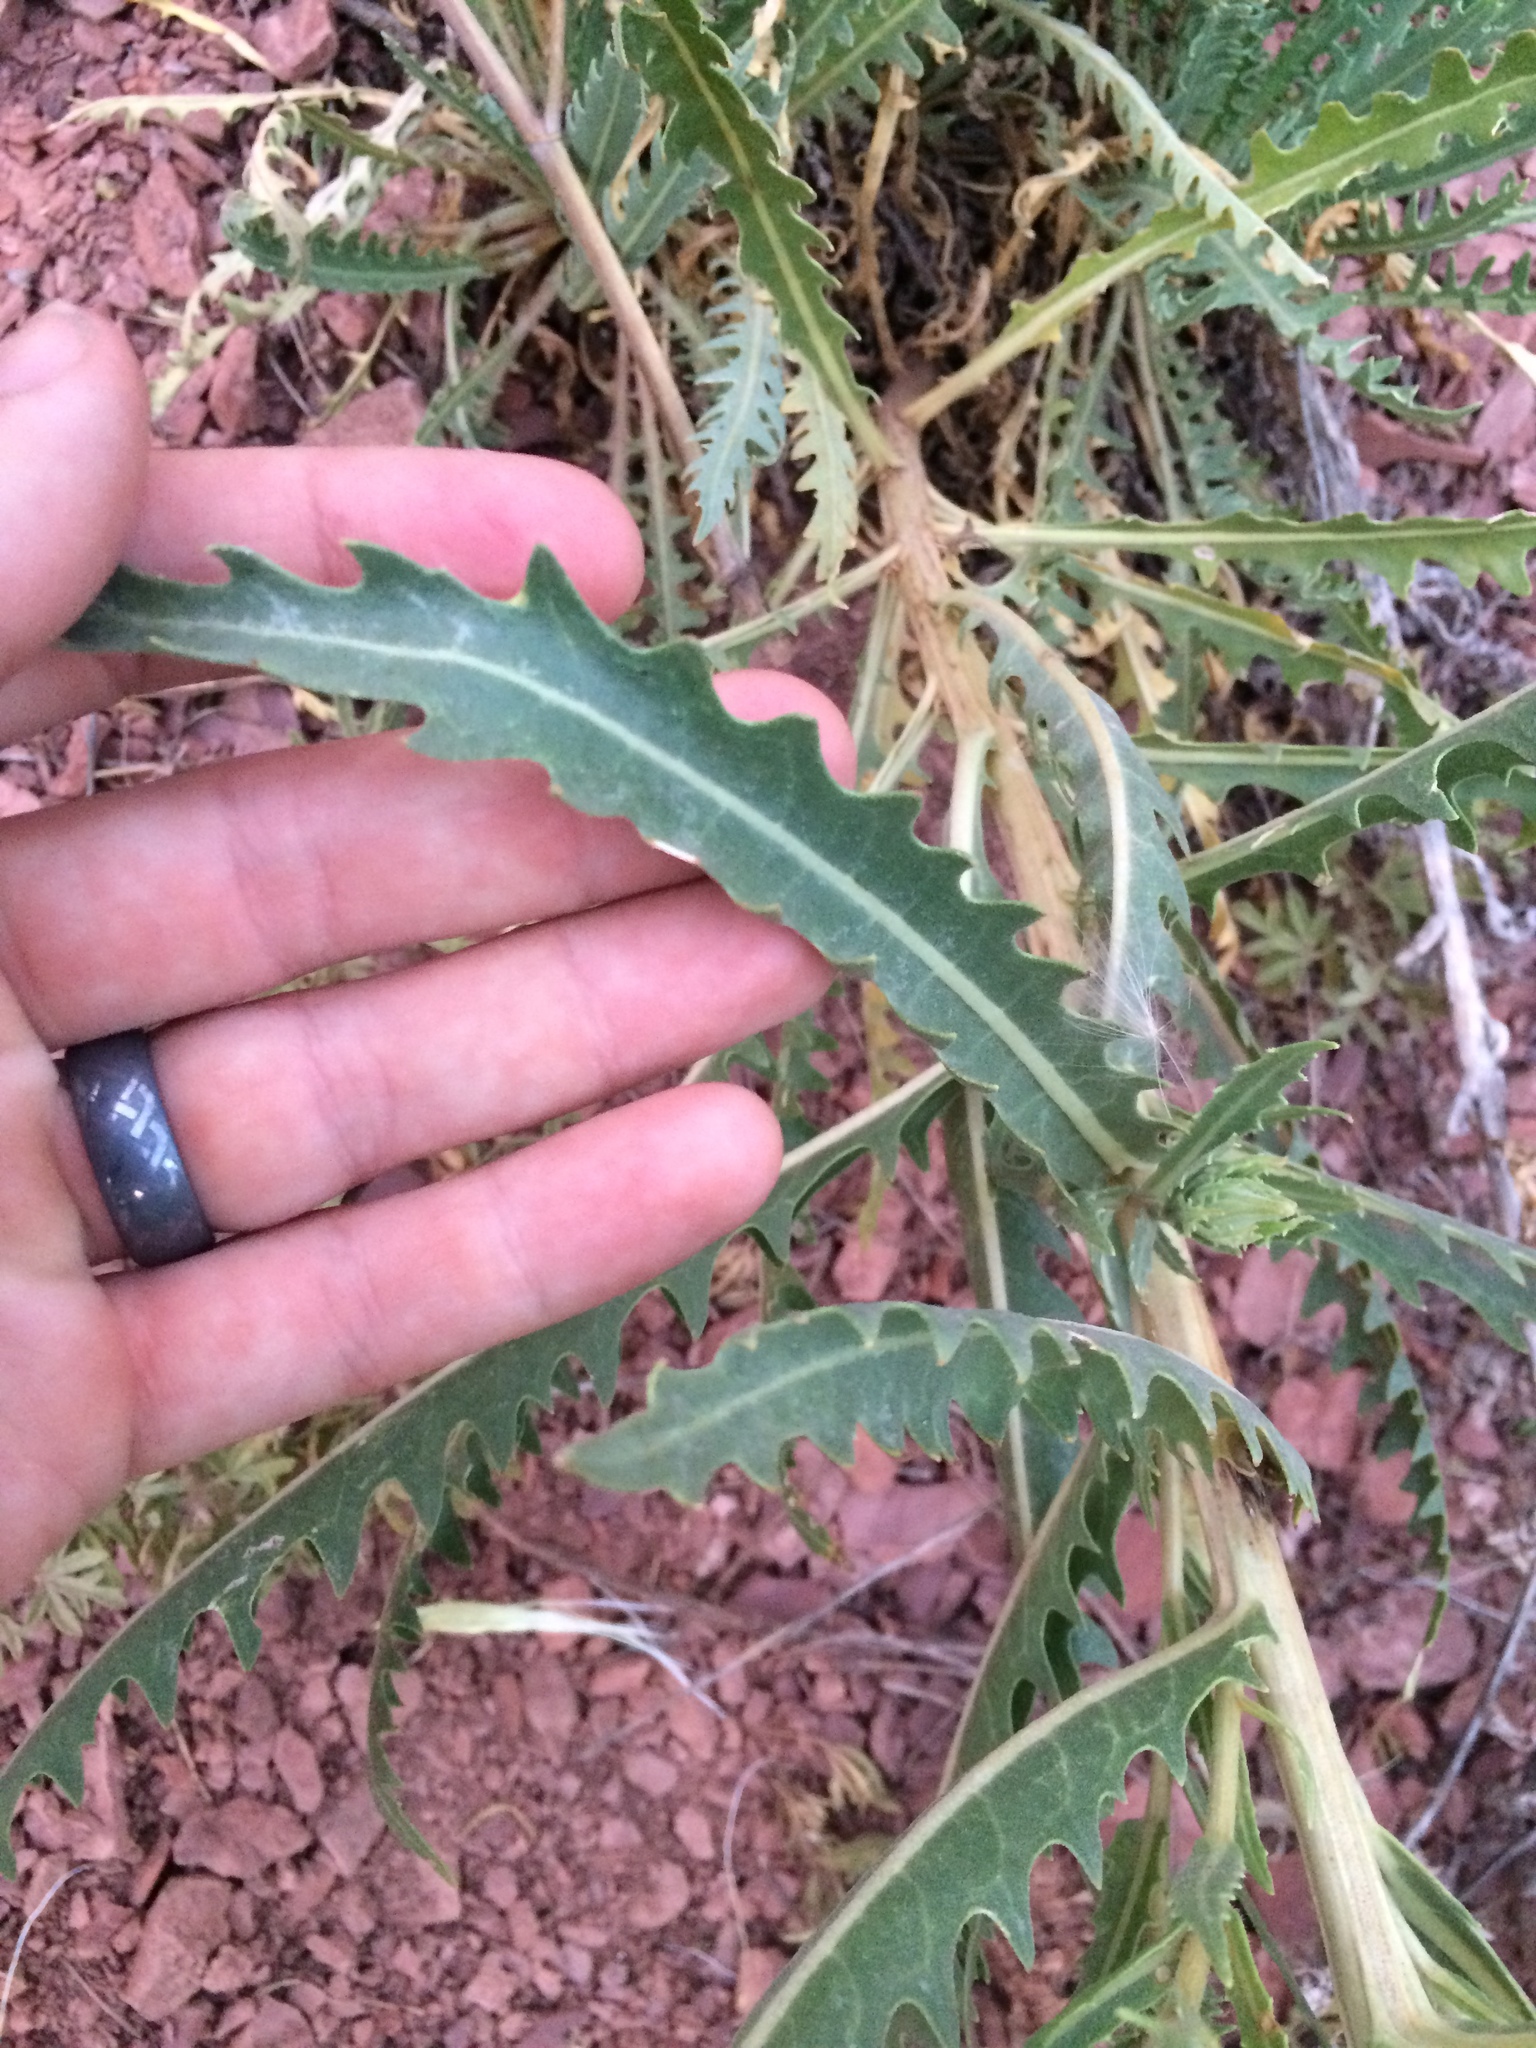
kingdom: Plantae
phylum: Tracheophyta
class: Magnoliopsida
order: Cornales
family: Loasaceae
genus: Mentzelia
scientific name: Mentzelia decapetala
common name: Gumbo-lily
